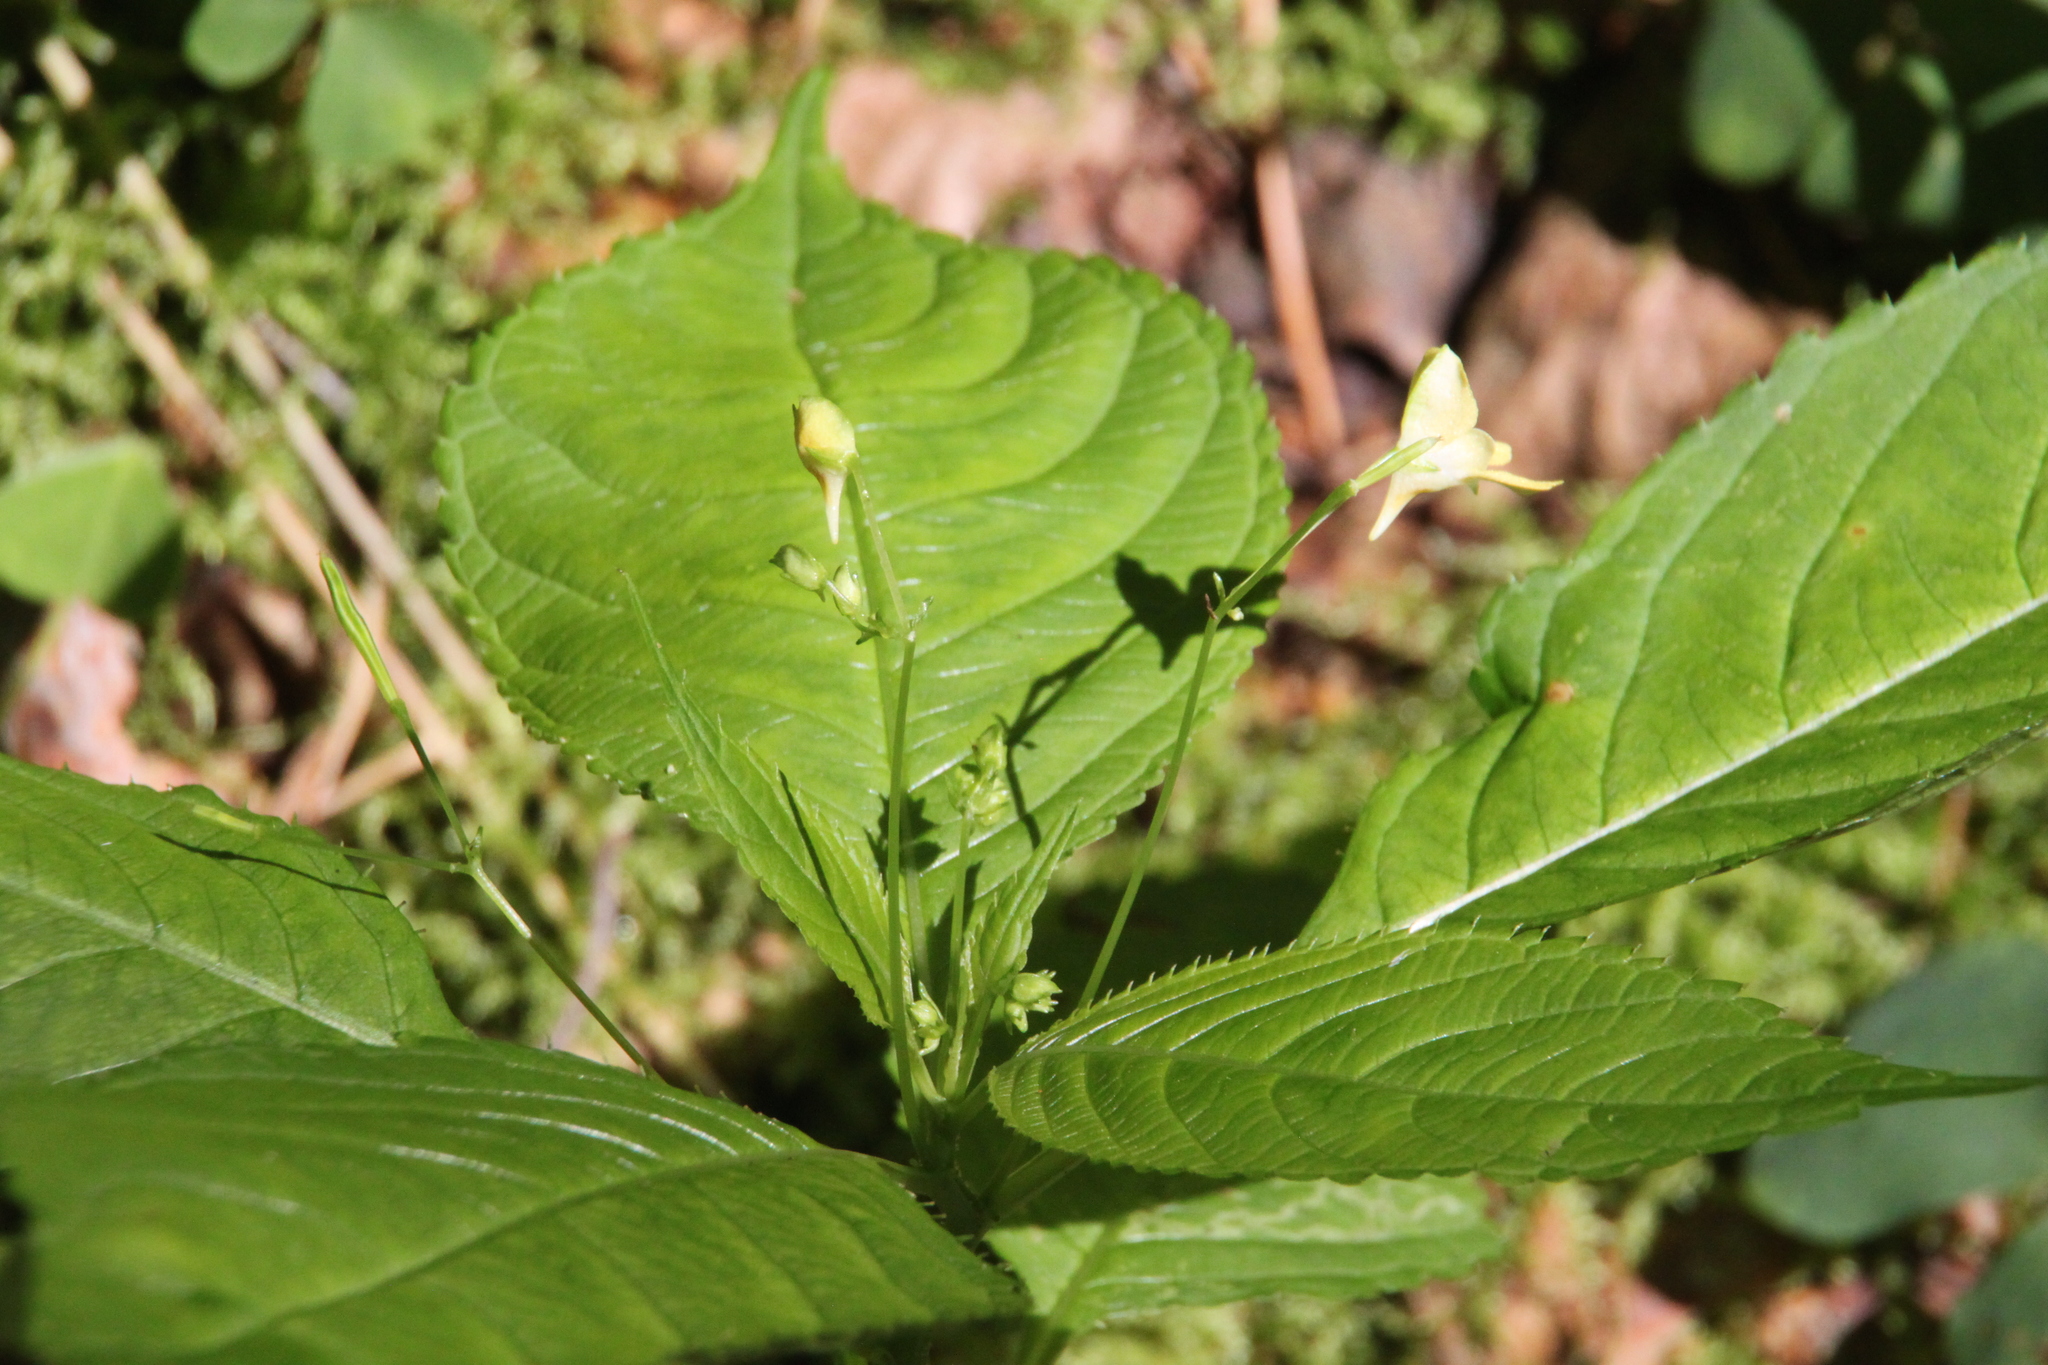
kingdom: Plantae
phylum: Tracheophyta
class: Magnoliopsida
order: Ericales
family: Balsaminaceae
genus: Impatiens
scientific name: Impatiens parviflora
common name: Small balsam
